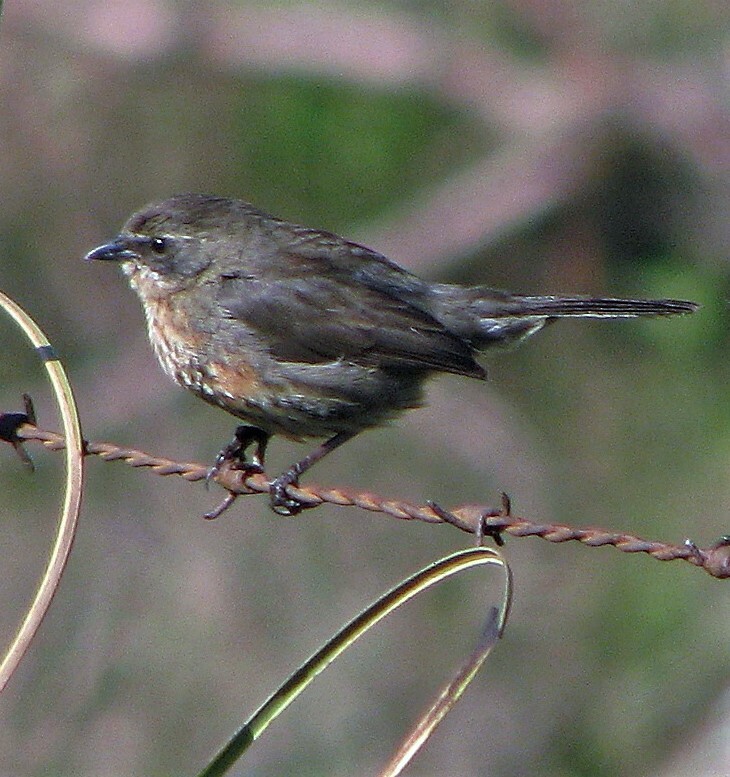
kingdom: Animalia
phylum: Chordata
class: Aves
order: Passeriformes
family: Thraupidae
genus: Poospiza
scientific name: Poospiza nigrorufa
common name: Black-and-rufous warbling finch
